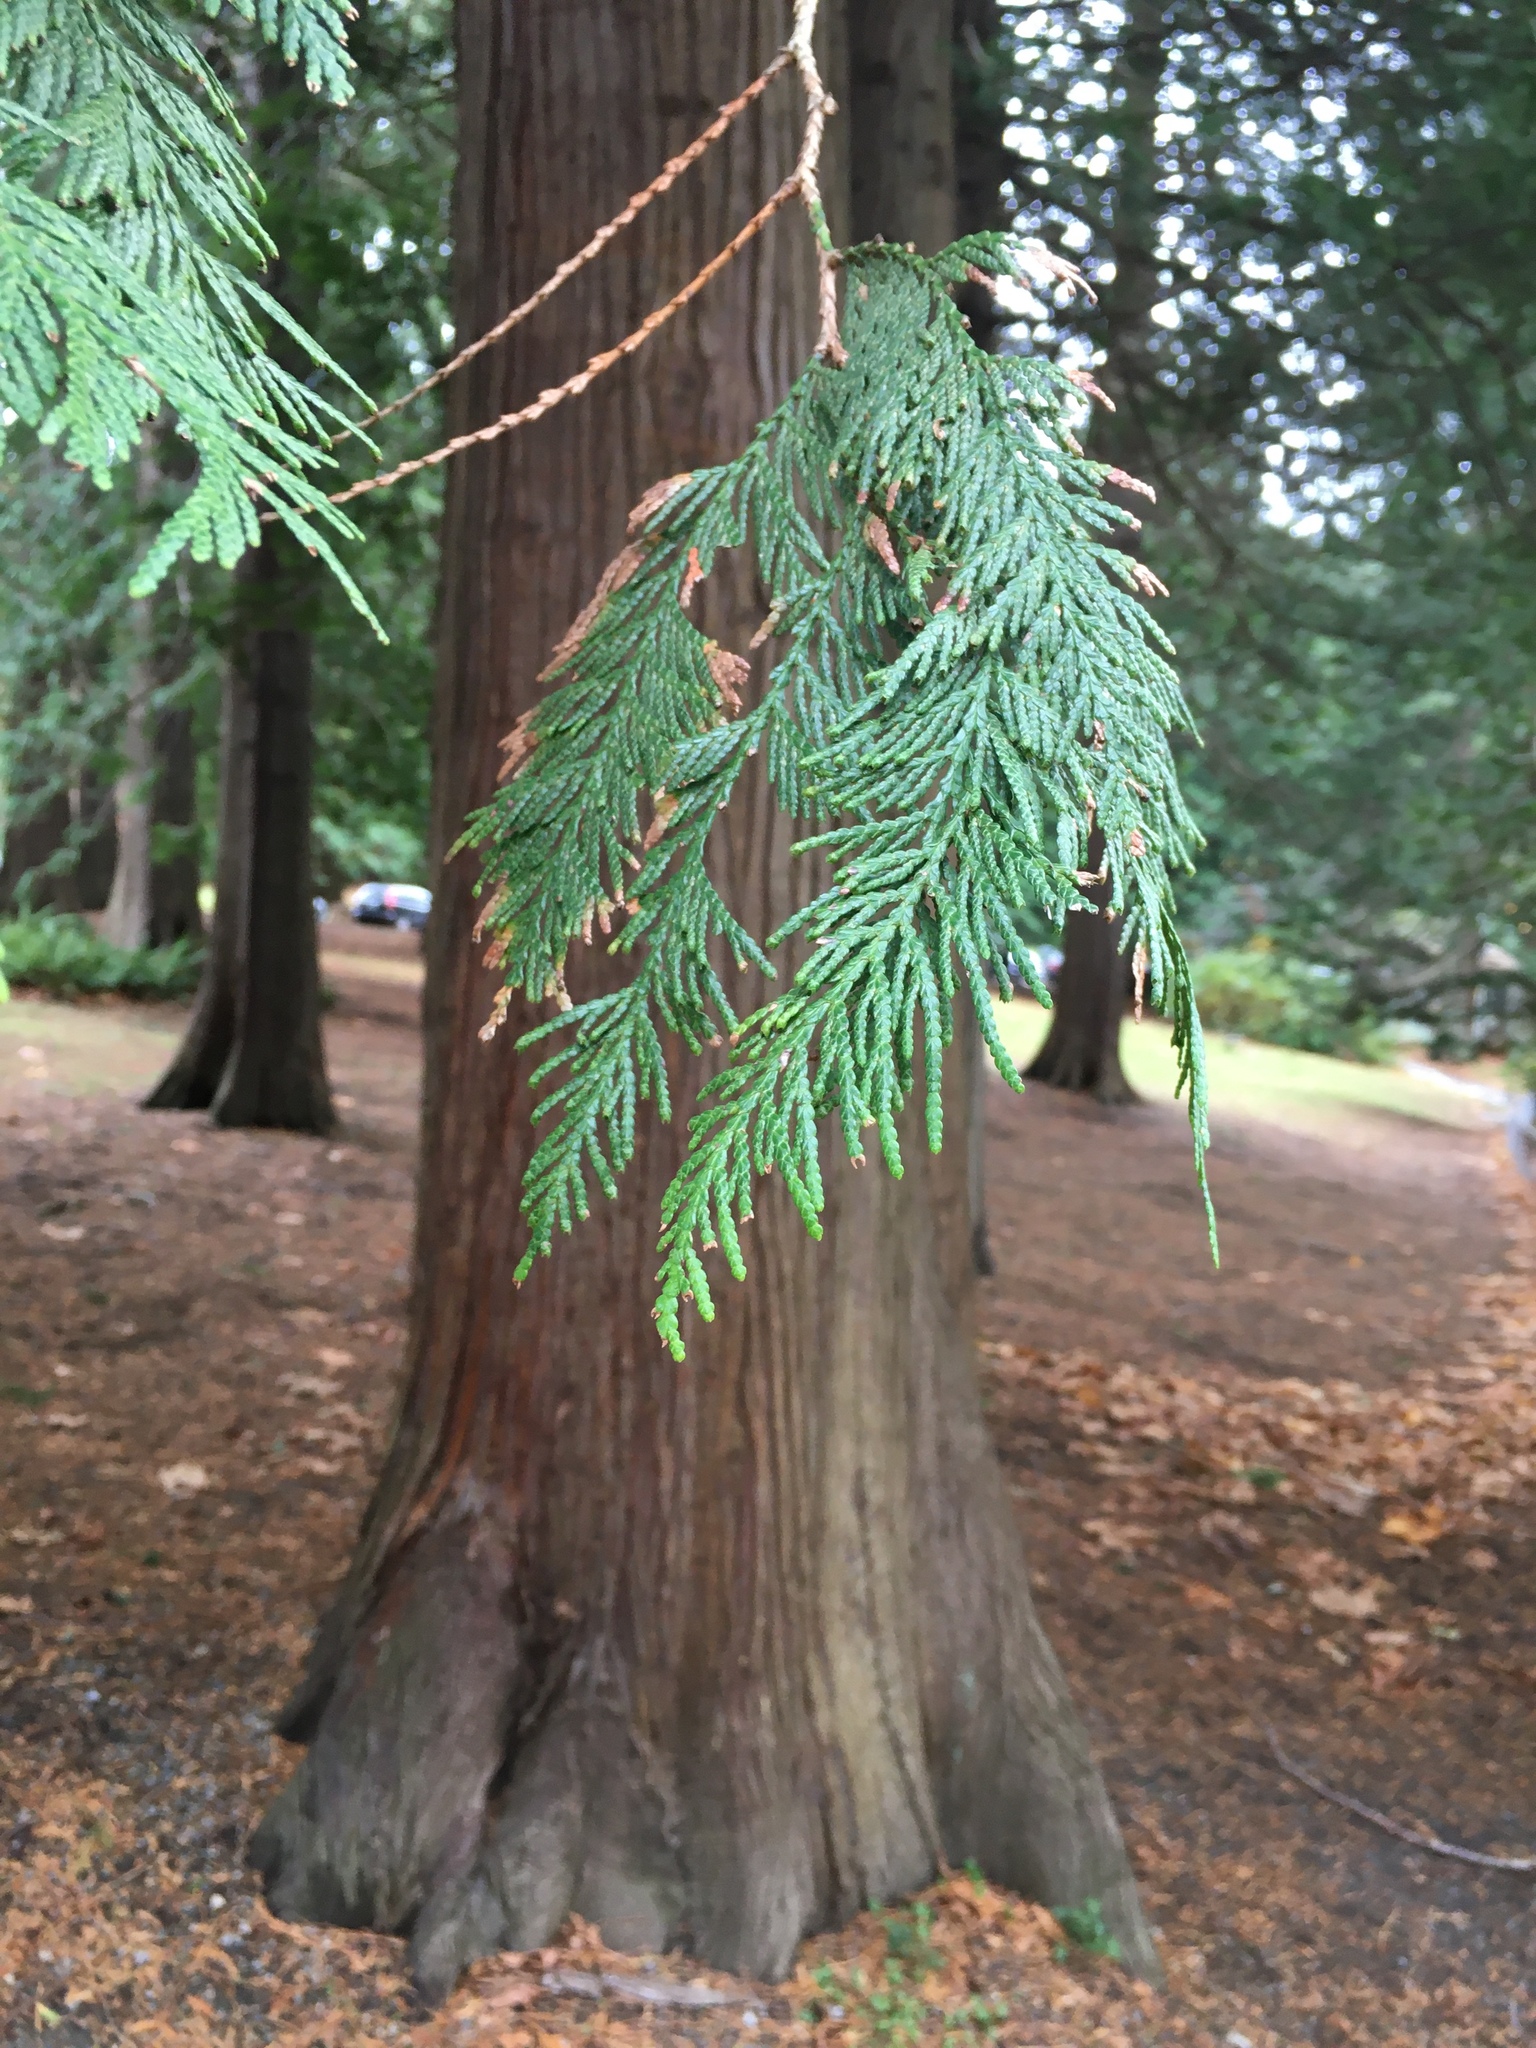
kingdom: Plantae
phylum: Tracheophyta
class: Pinopsida
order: Pinales
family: Cupressaceae
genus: Thuja
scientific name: Thuja plicata
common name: Western red-cedar
